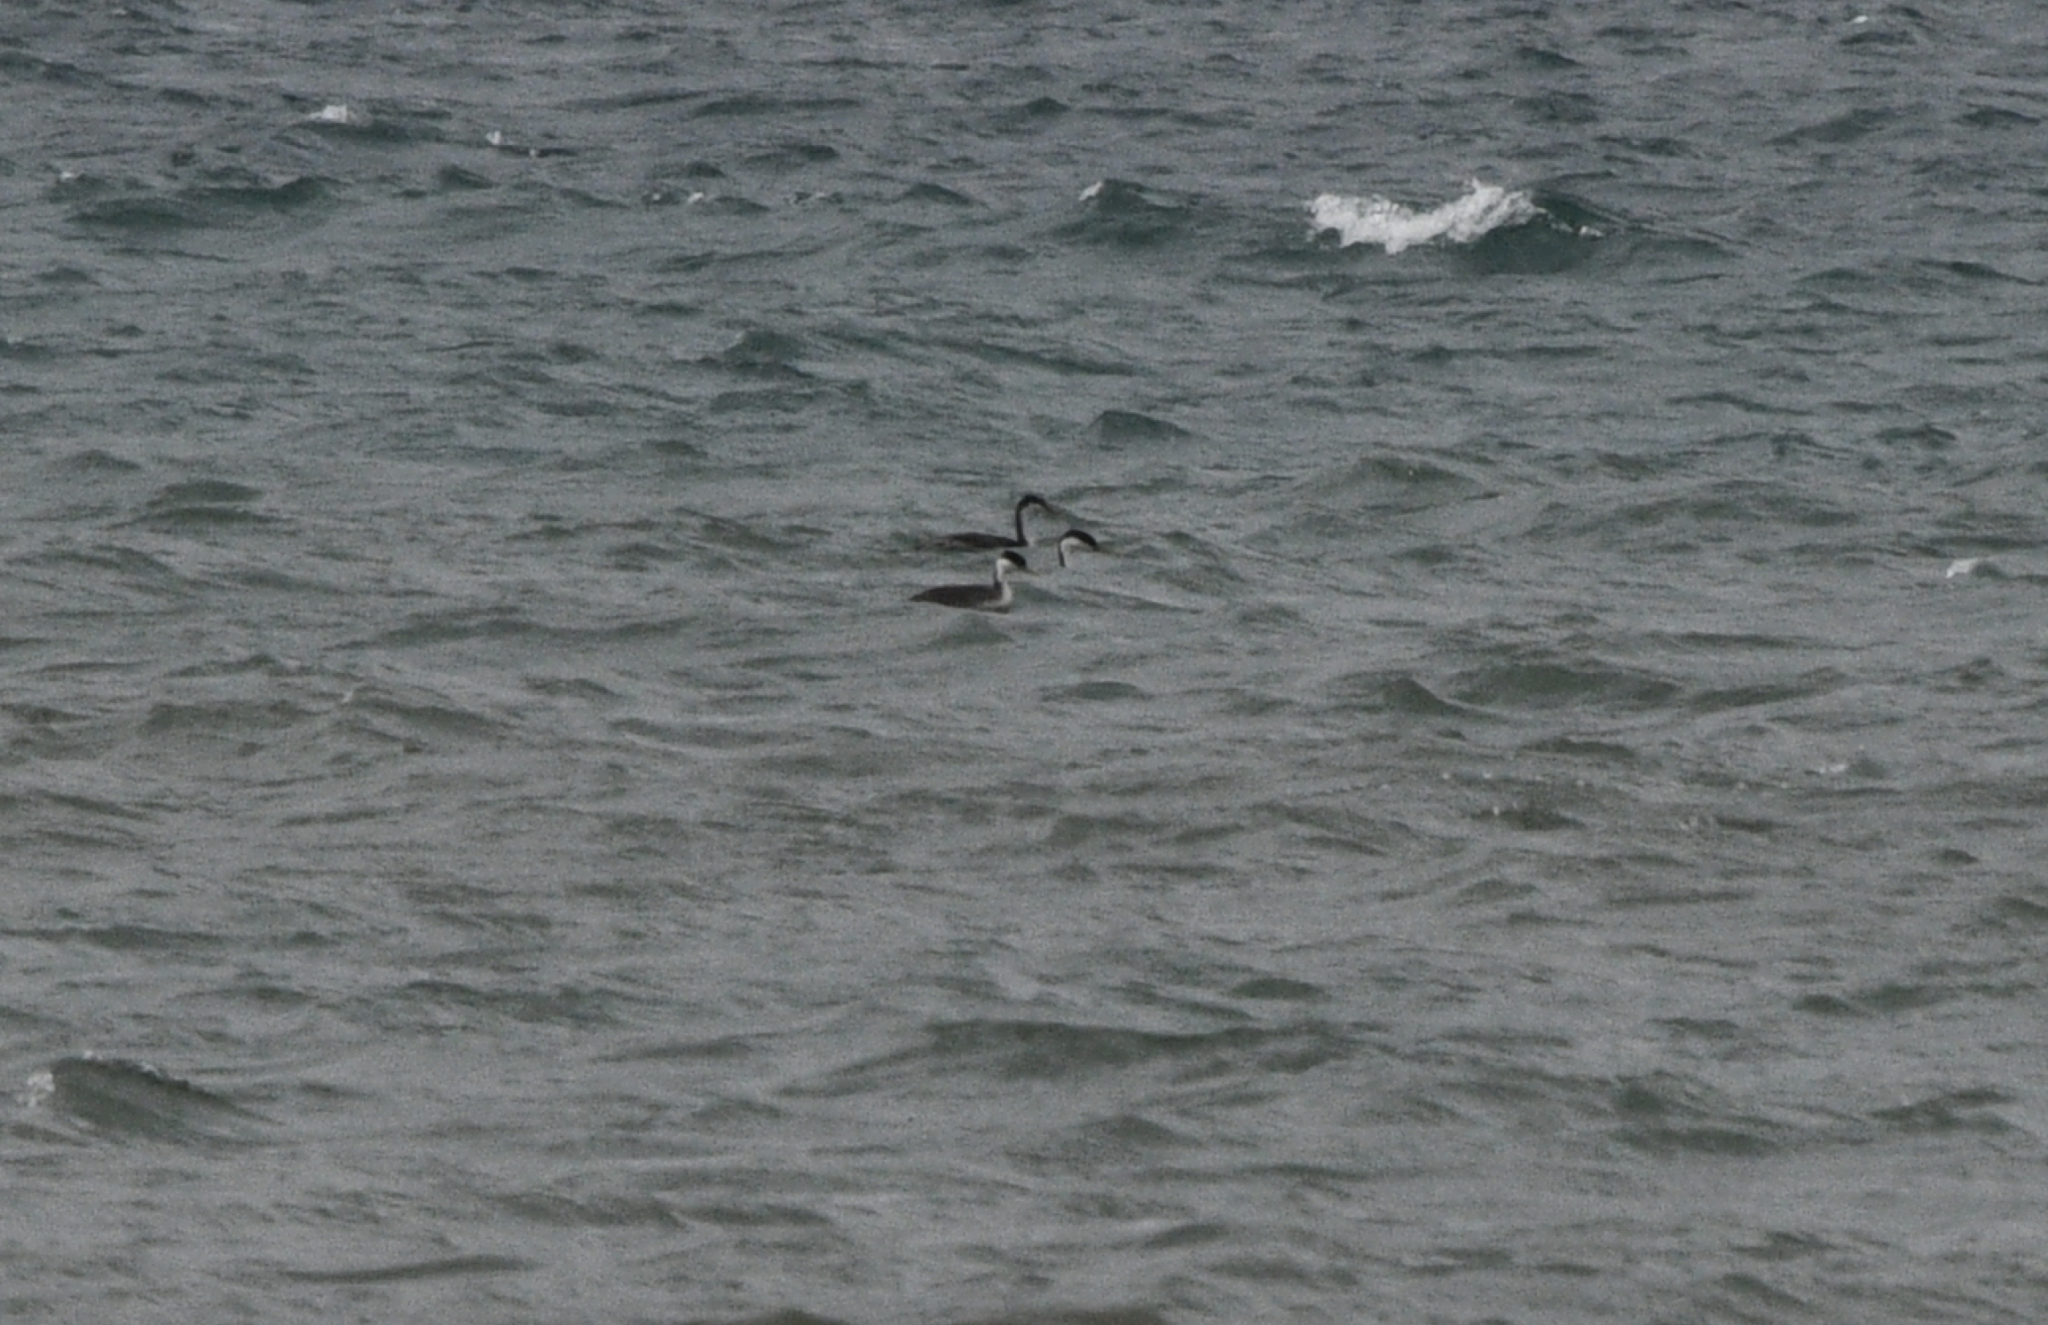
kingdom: Animalia
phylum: Chordata
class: Aves
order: Podicipediformes
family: Podicipedidae
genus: Aechmophorus
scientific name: Aechmophorus occidentalis
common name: Western grebe
